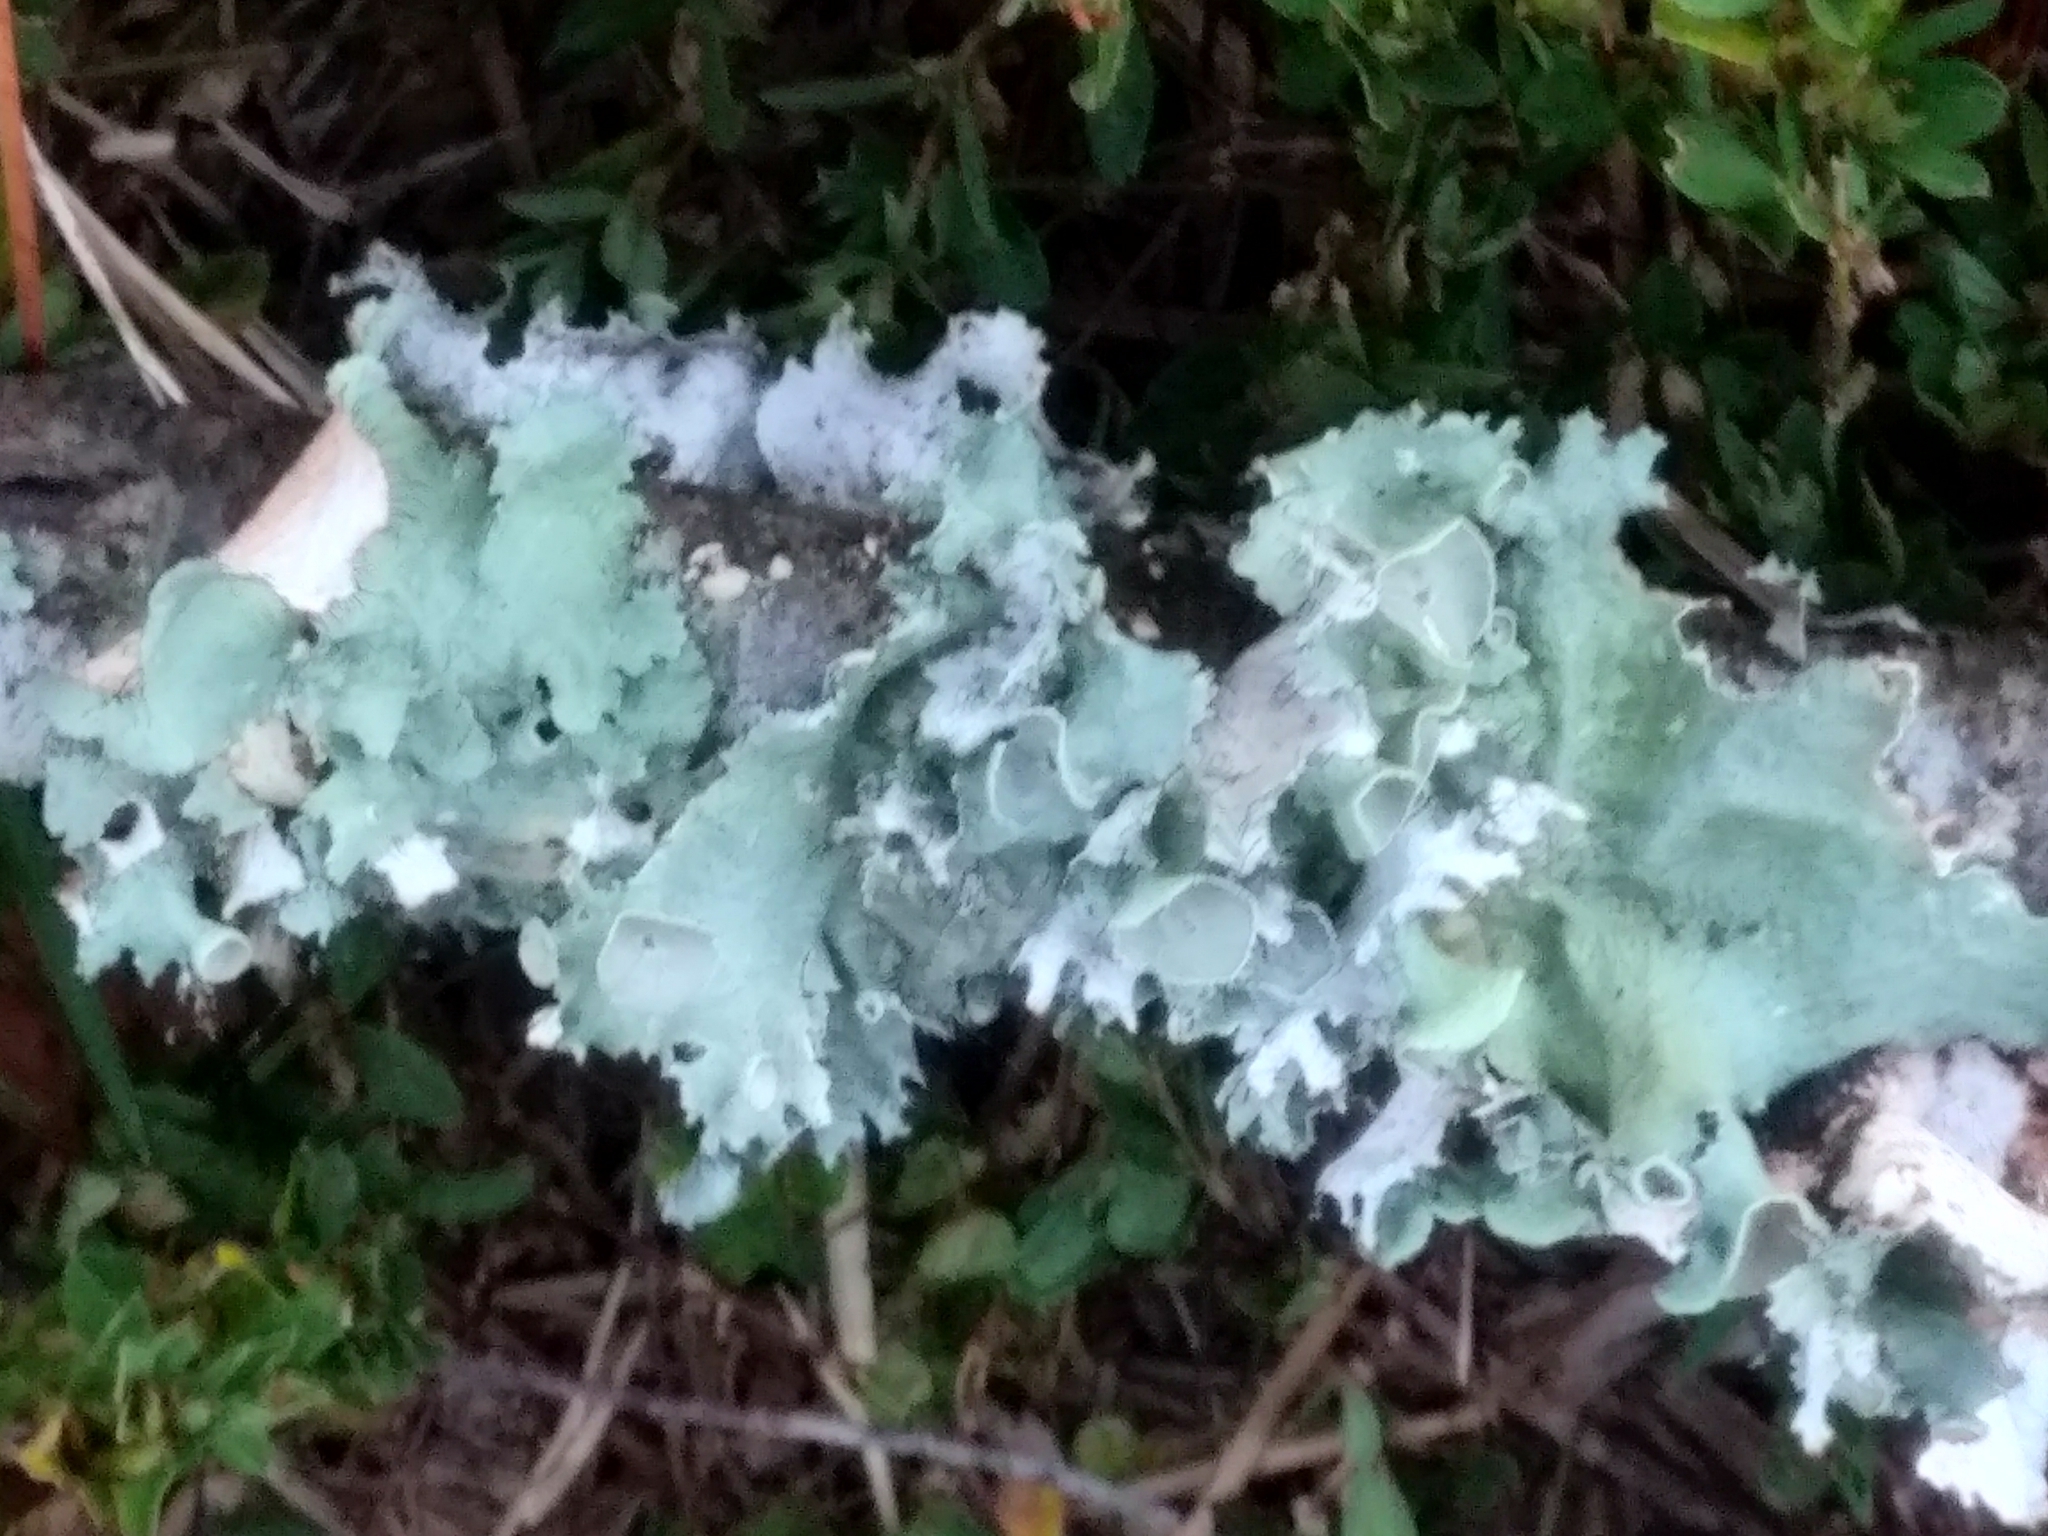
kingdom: Fungi
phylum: Ascomycota
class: Lecanoromycetes
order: Lecanorales
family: Parmeliaceae
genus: Parmotrema
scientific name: Parmotrema perforatum
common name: Perforated ruffle lichen
